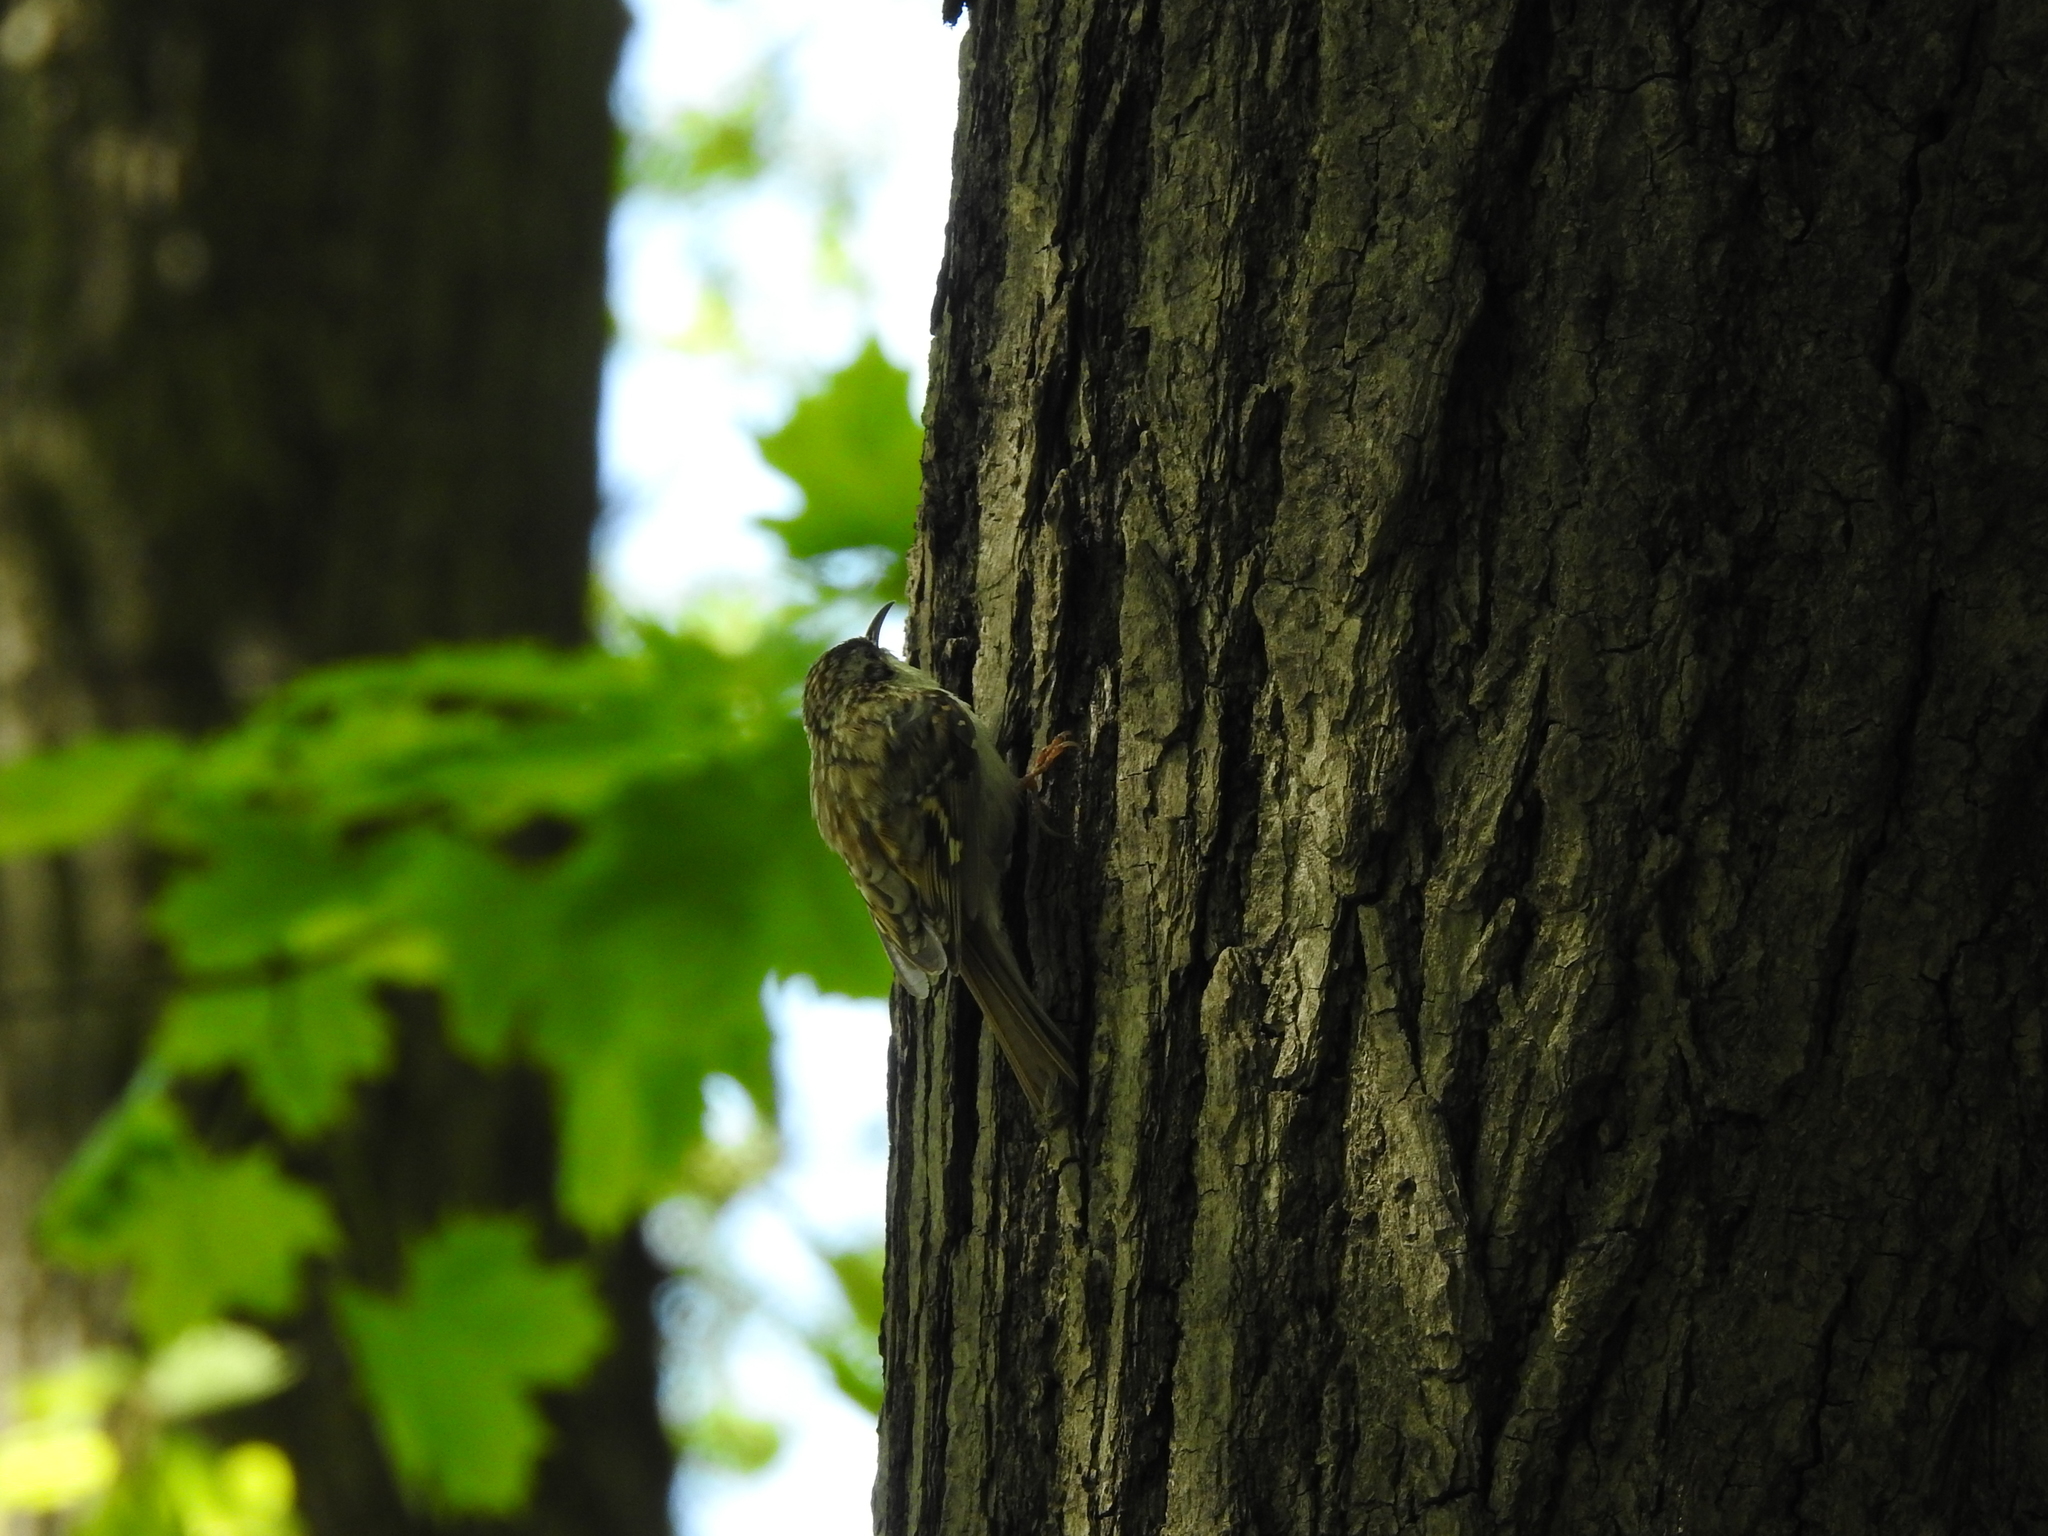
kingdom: Animalia
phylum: Chordata
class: Aves
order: Passeriformes
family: Certhiidae
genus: Certhia
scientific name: Certhia familiaris
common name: Eurasian treecreeper
